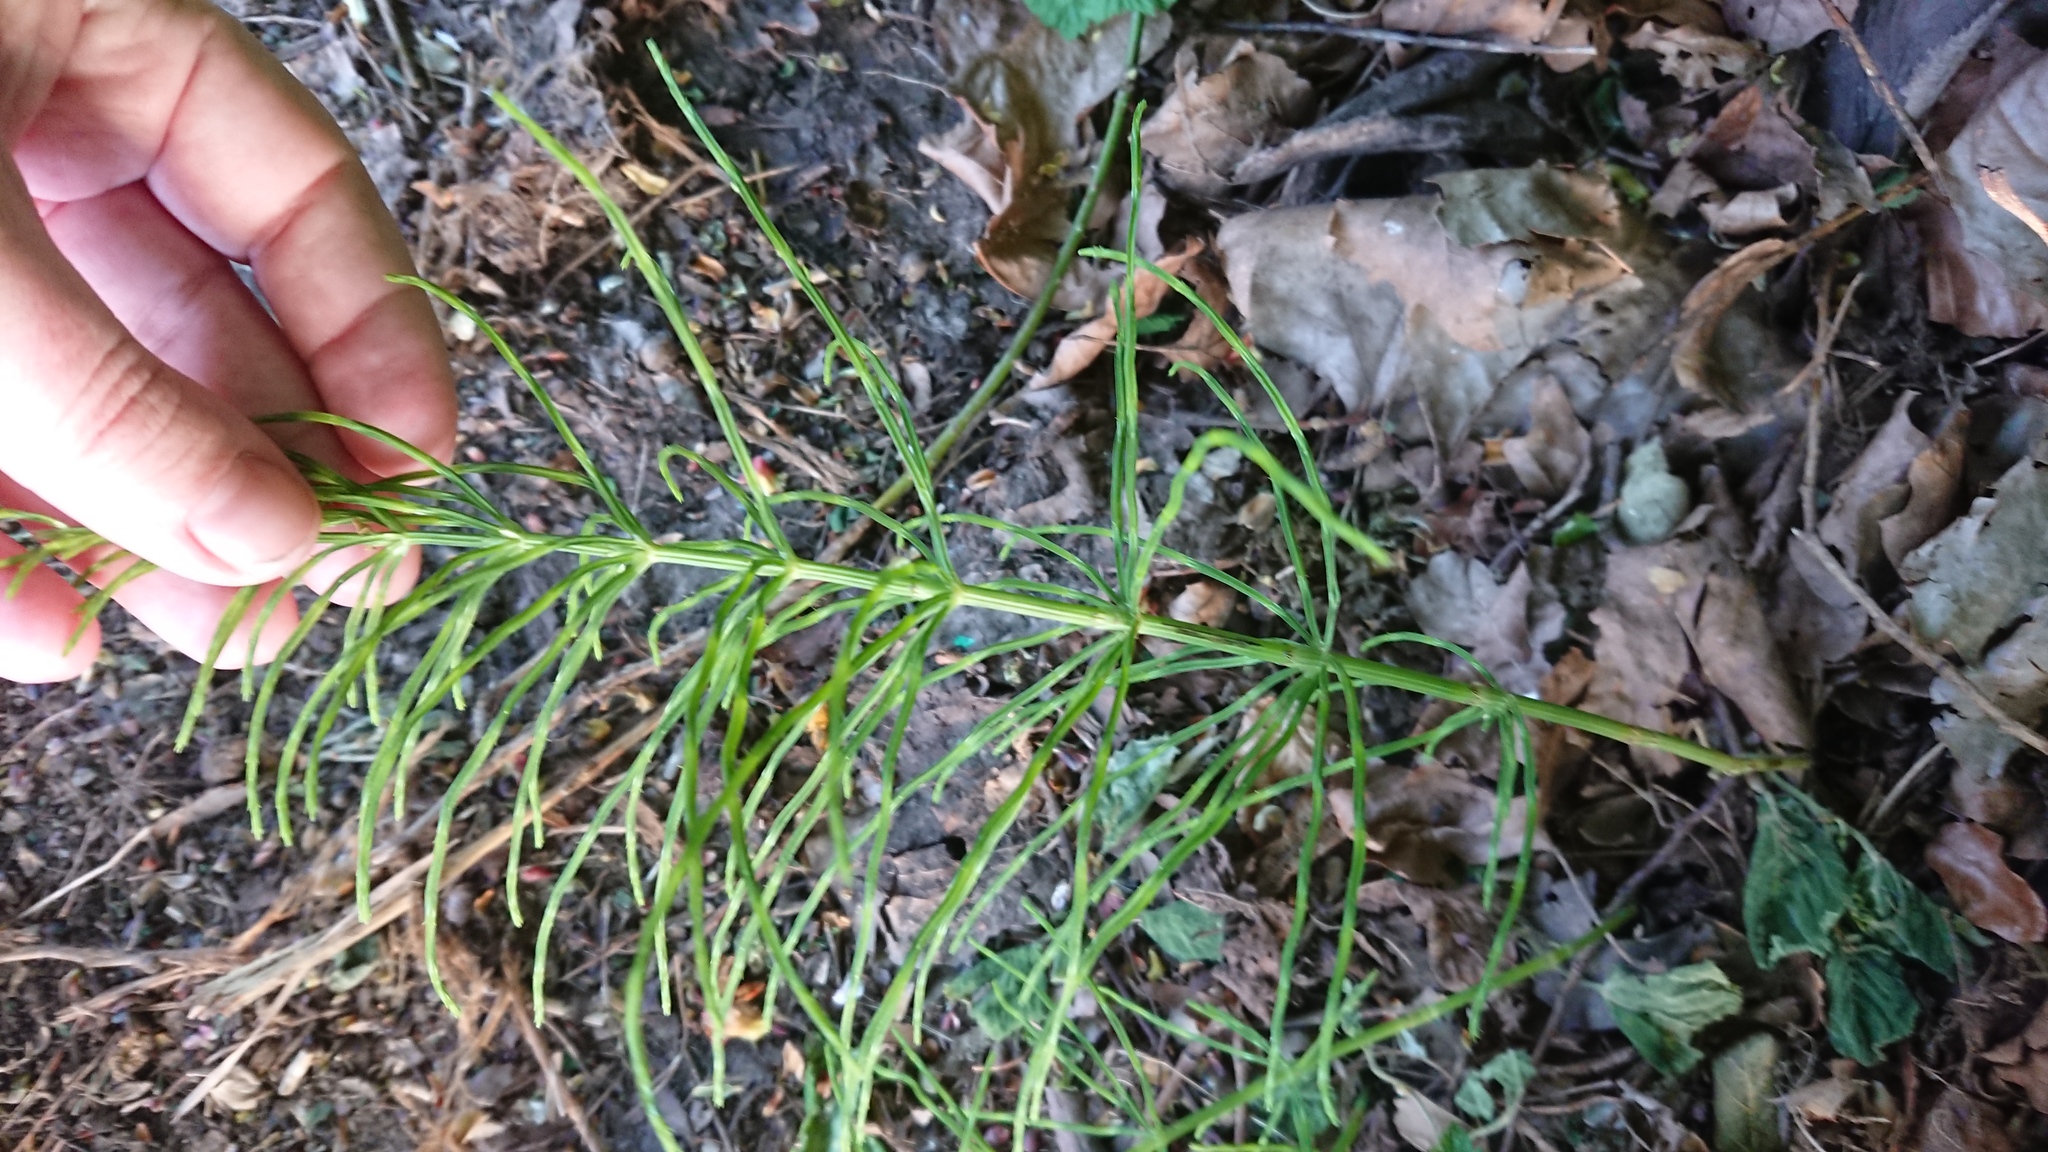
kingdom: Plantae
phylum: Tracheophyta
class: Polypodiopsida
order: Equisetales
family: Equisetaceae
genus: Equisetum
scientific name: Equisetum arvense
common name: Field horsetail
